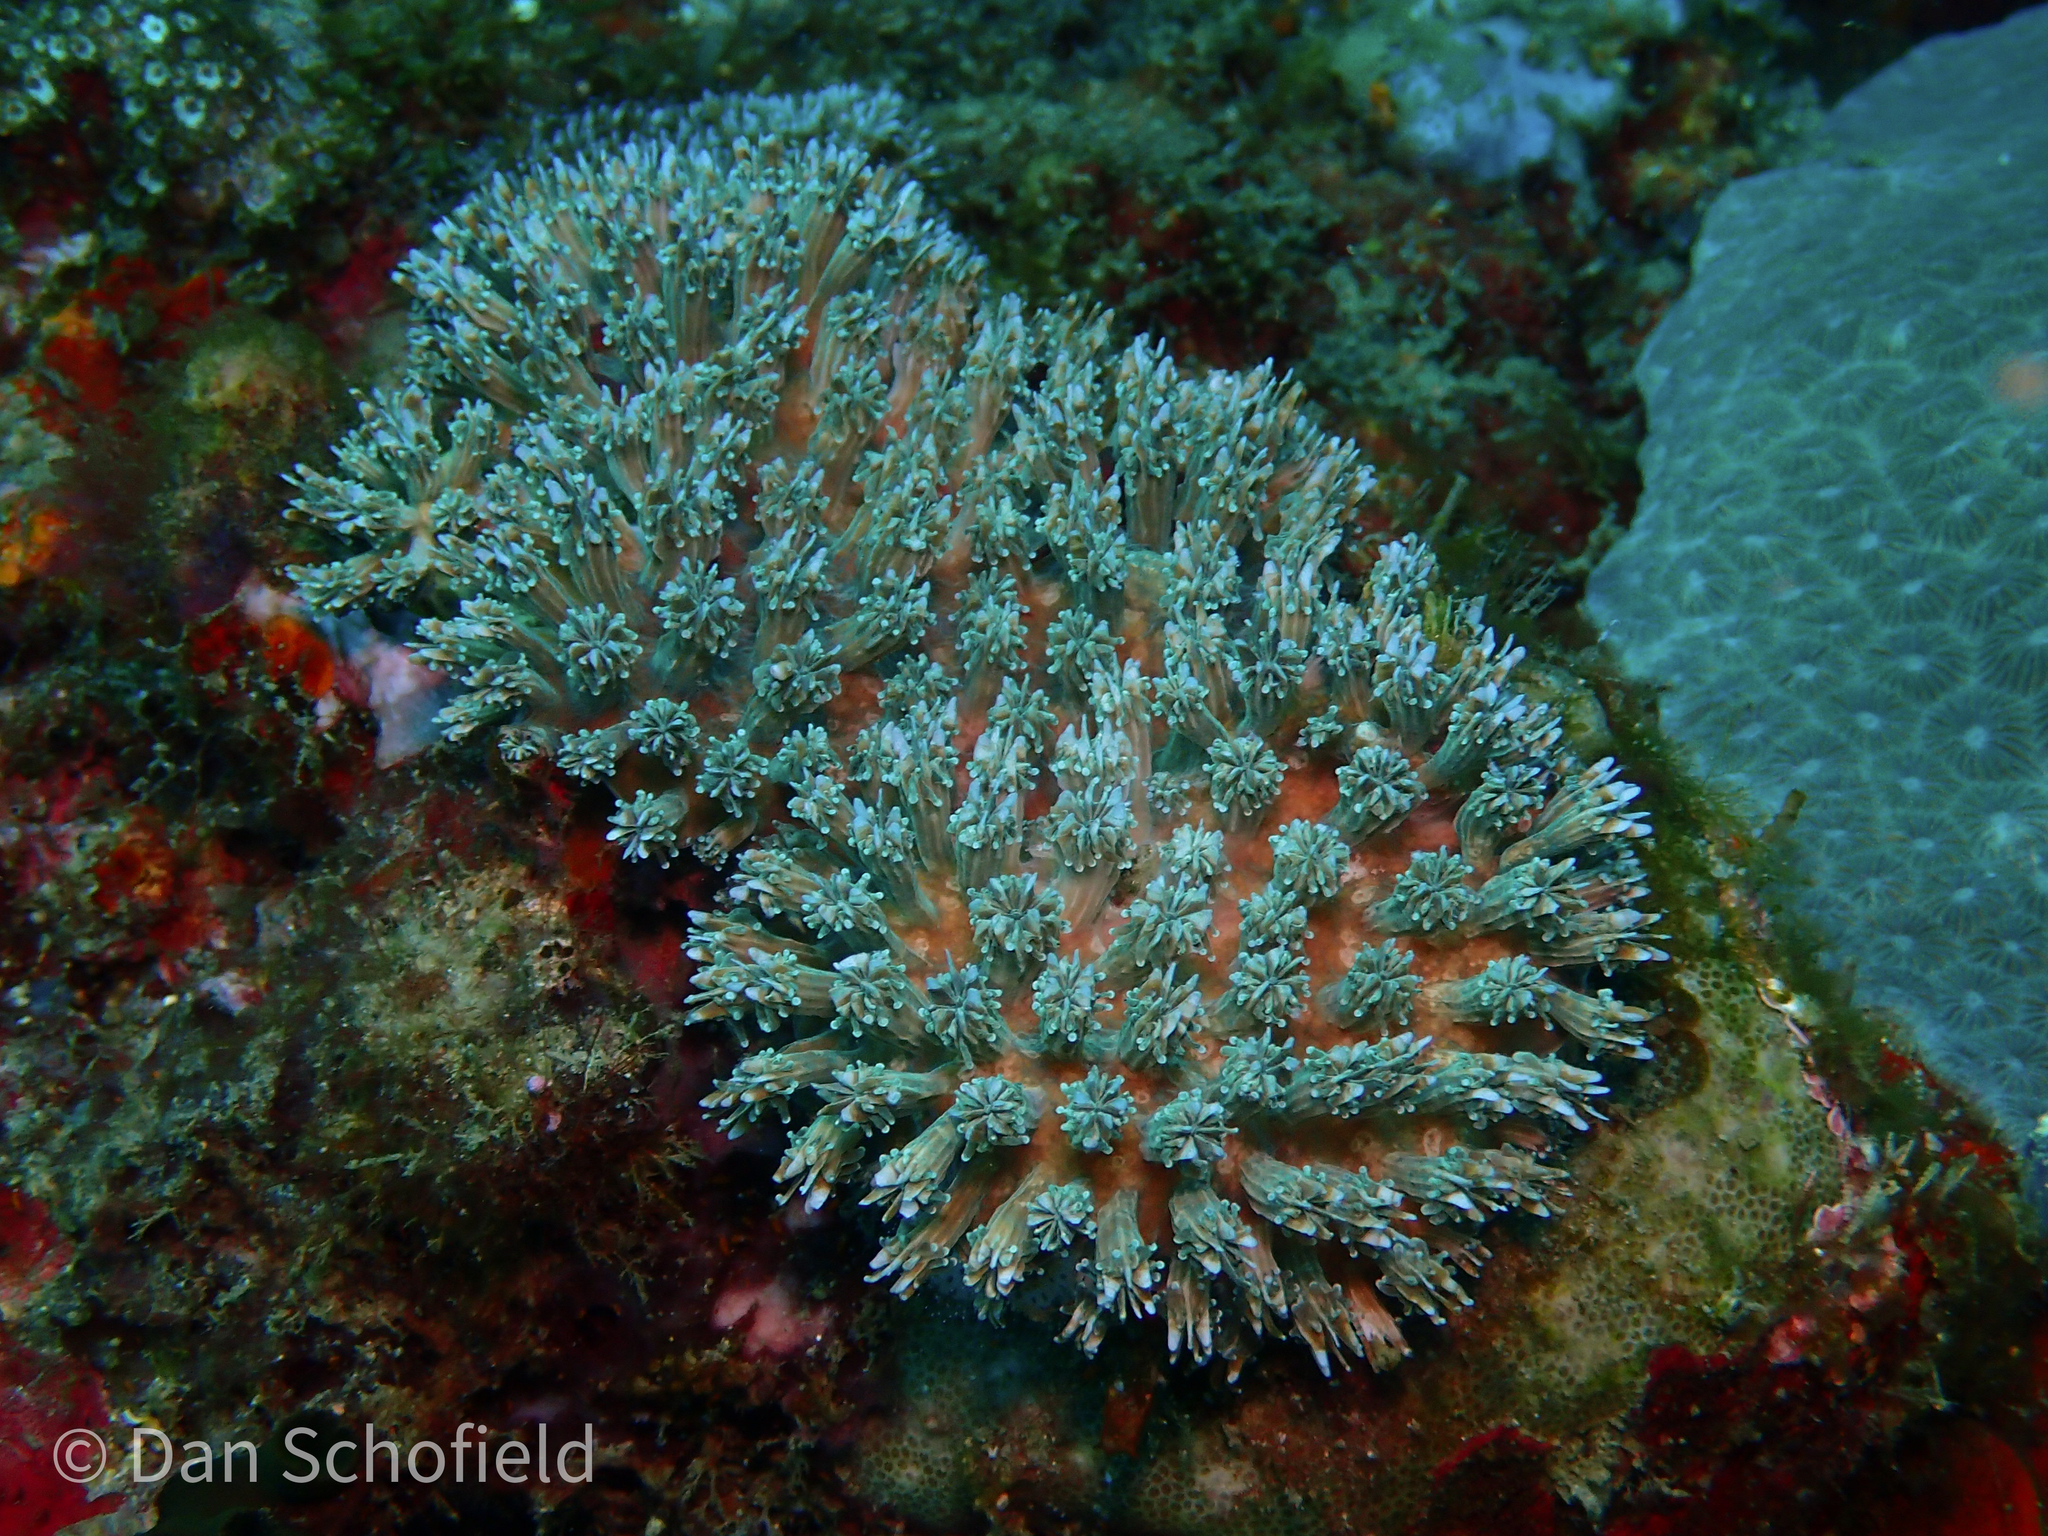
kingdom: Animalia
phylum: Cnidaria
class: Anthozoa
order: Scleractinia
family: Euphylliidae
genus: Galaxea
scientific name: Galaxea astreata
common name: Octopus coral
